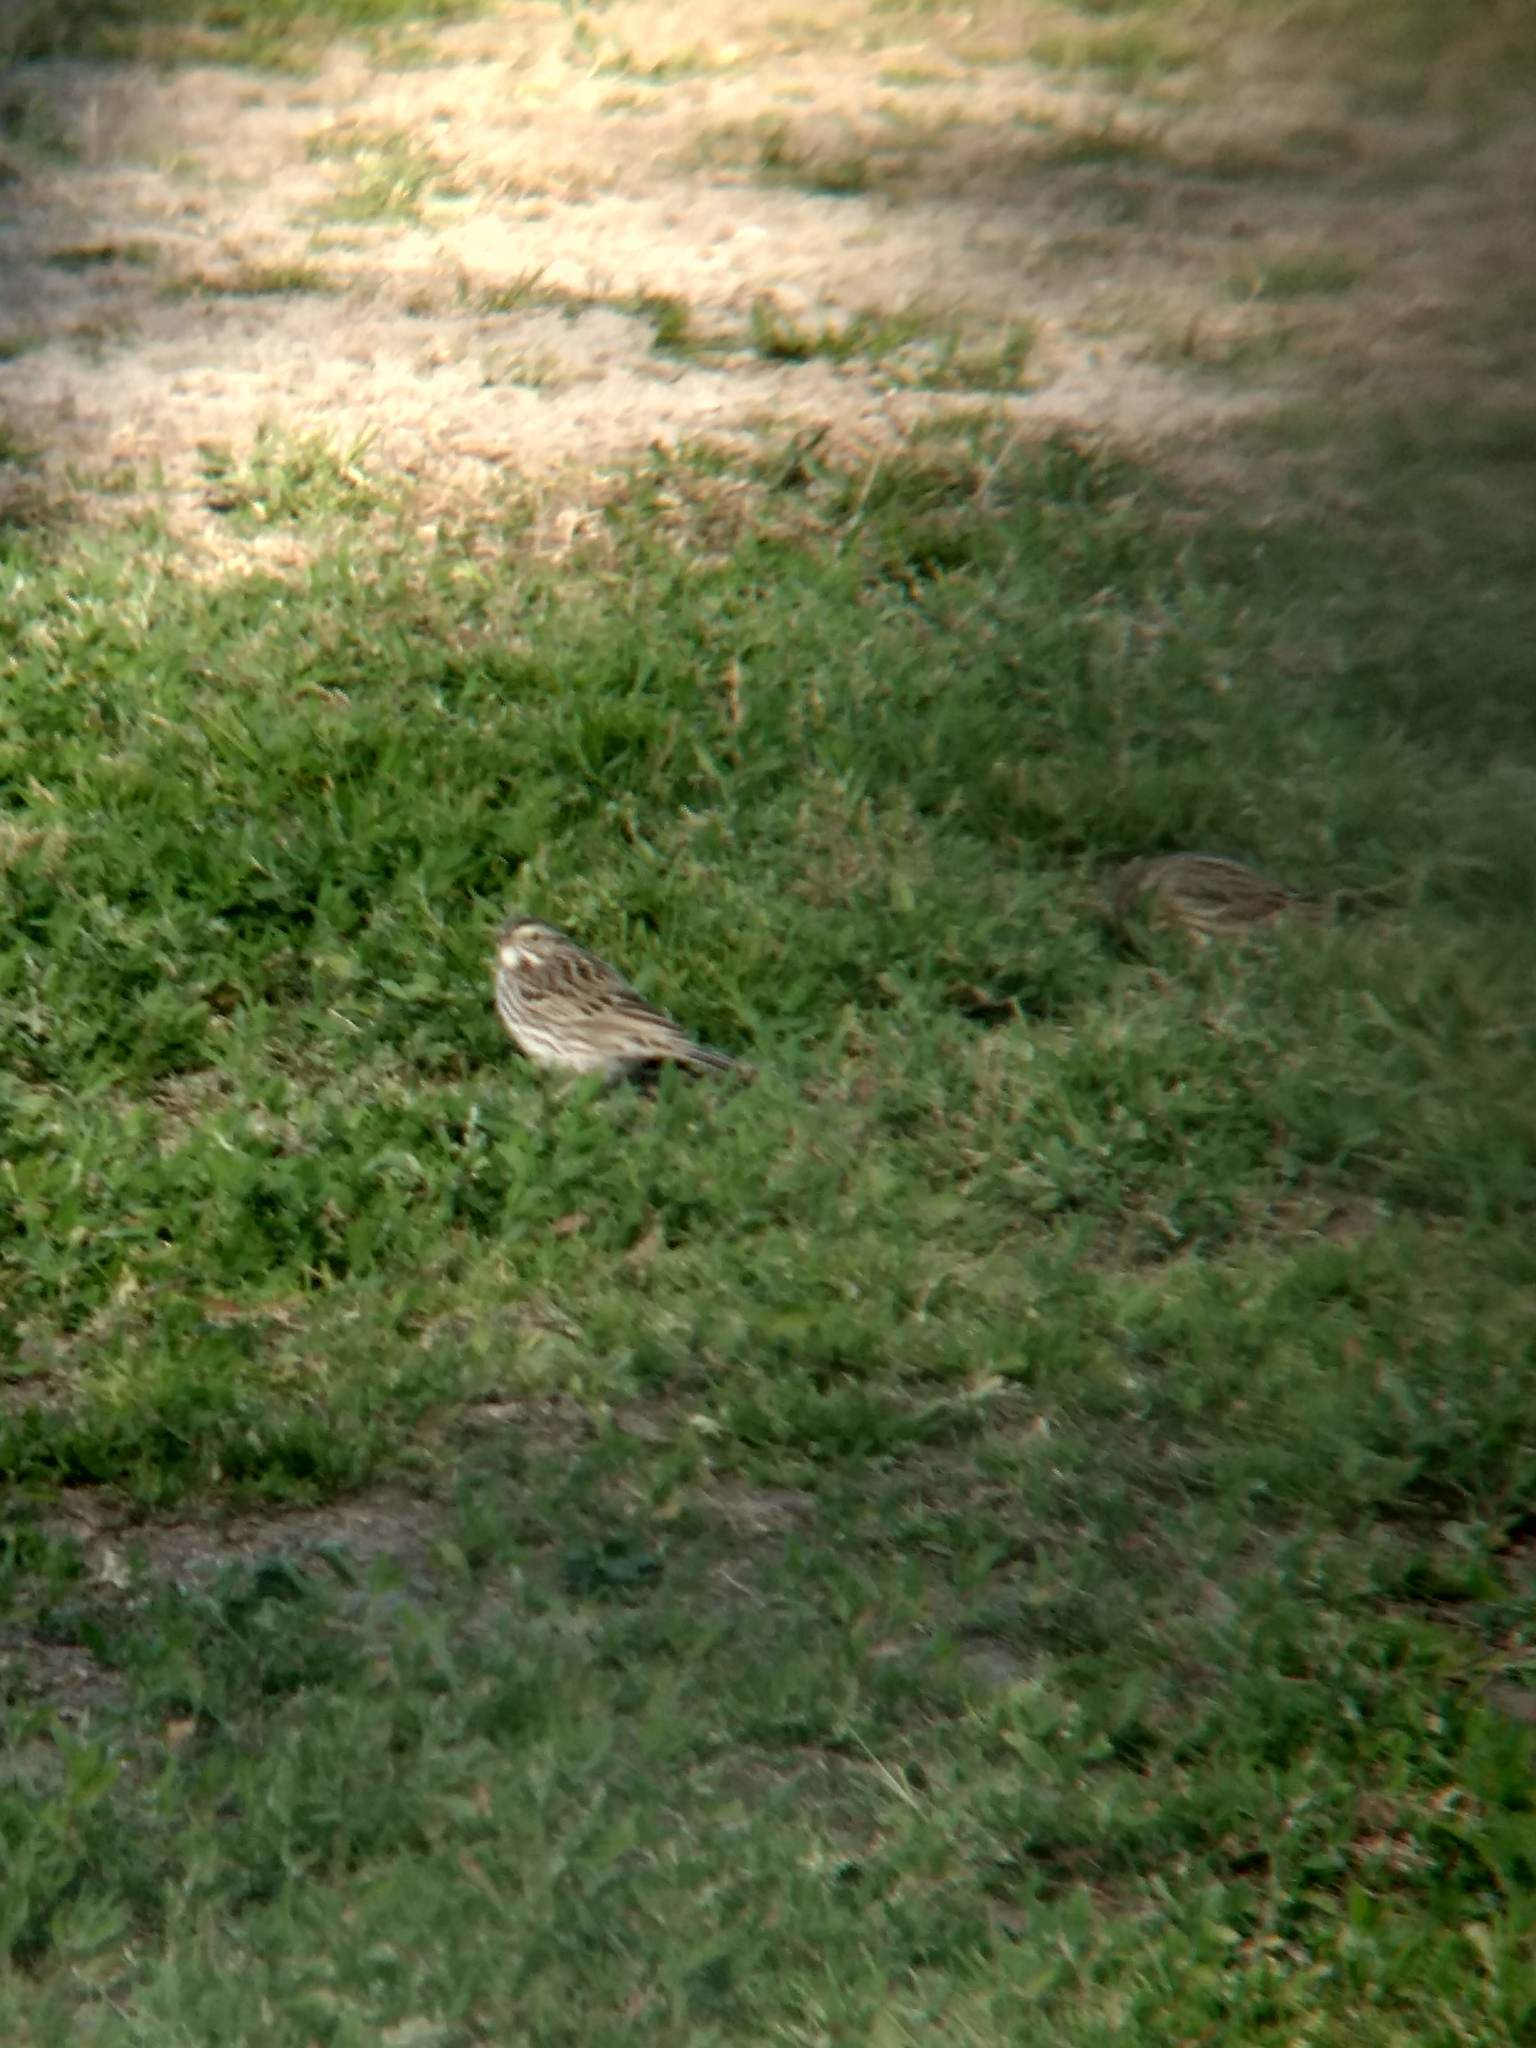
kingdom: Animalia
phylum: Chordata
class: Aves
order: Passeriformes
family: Passerellidae
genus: Passerculus
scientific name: Passerculus sandwichensis
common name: Savannah sparrow
